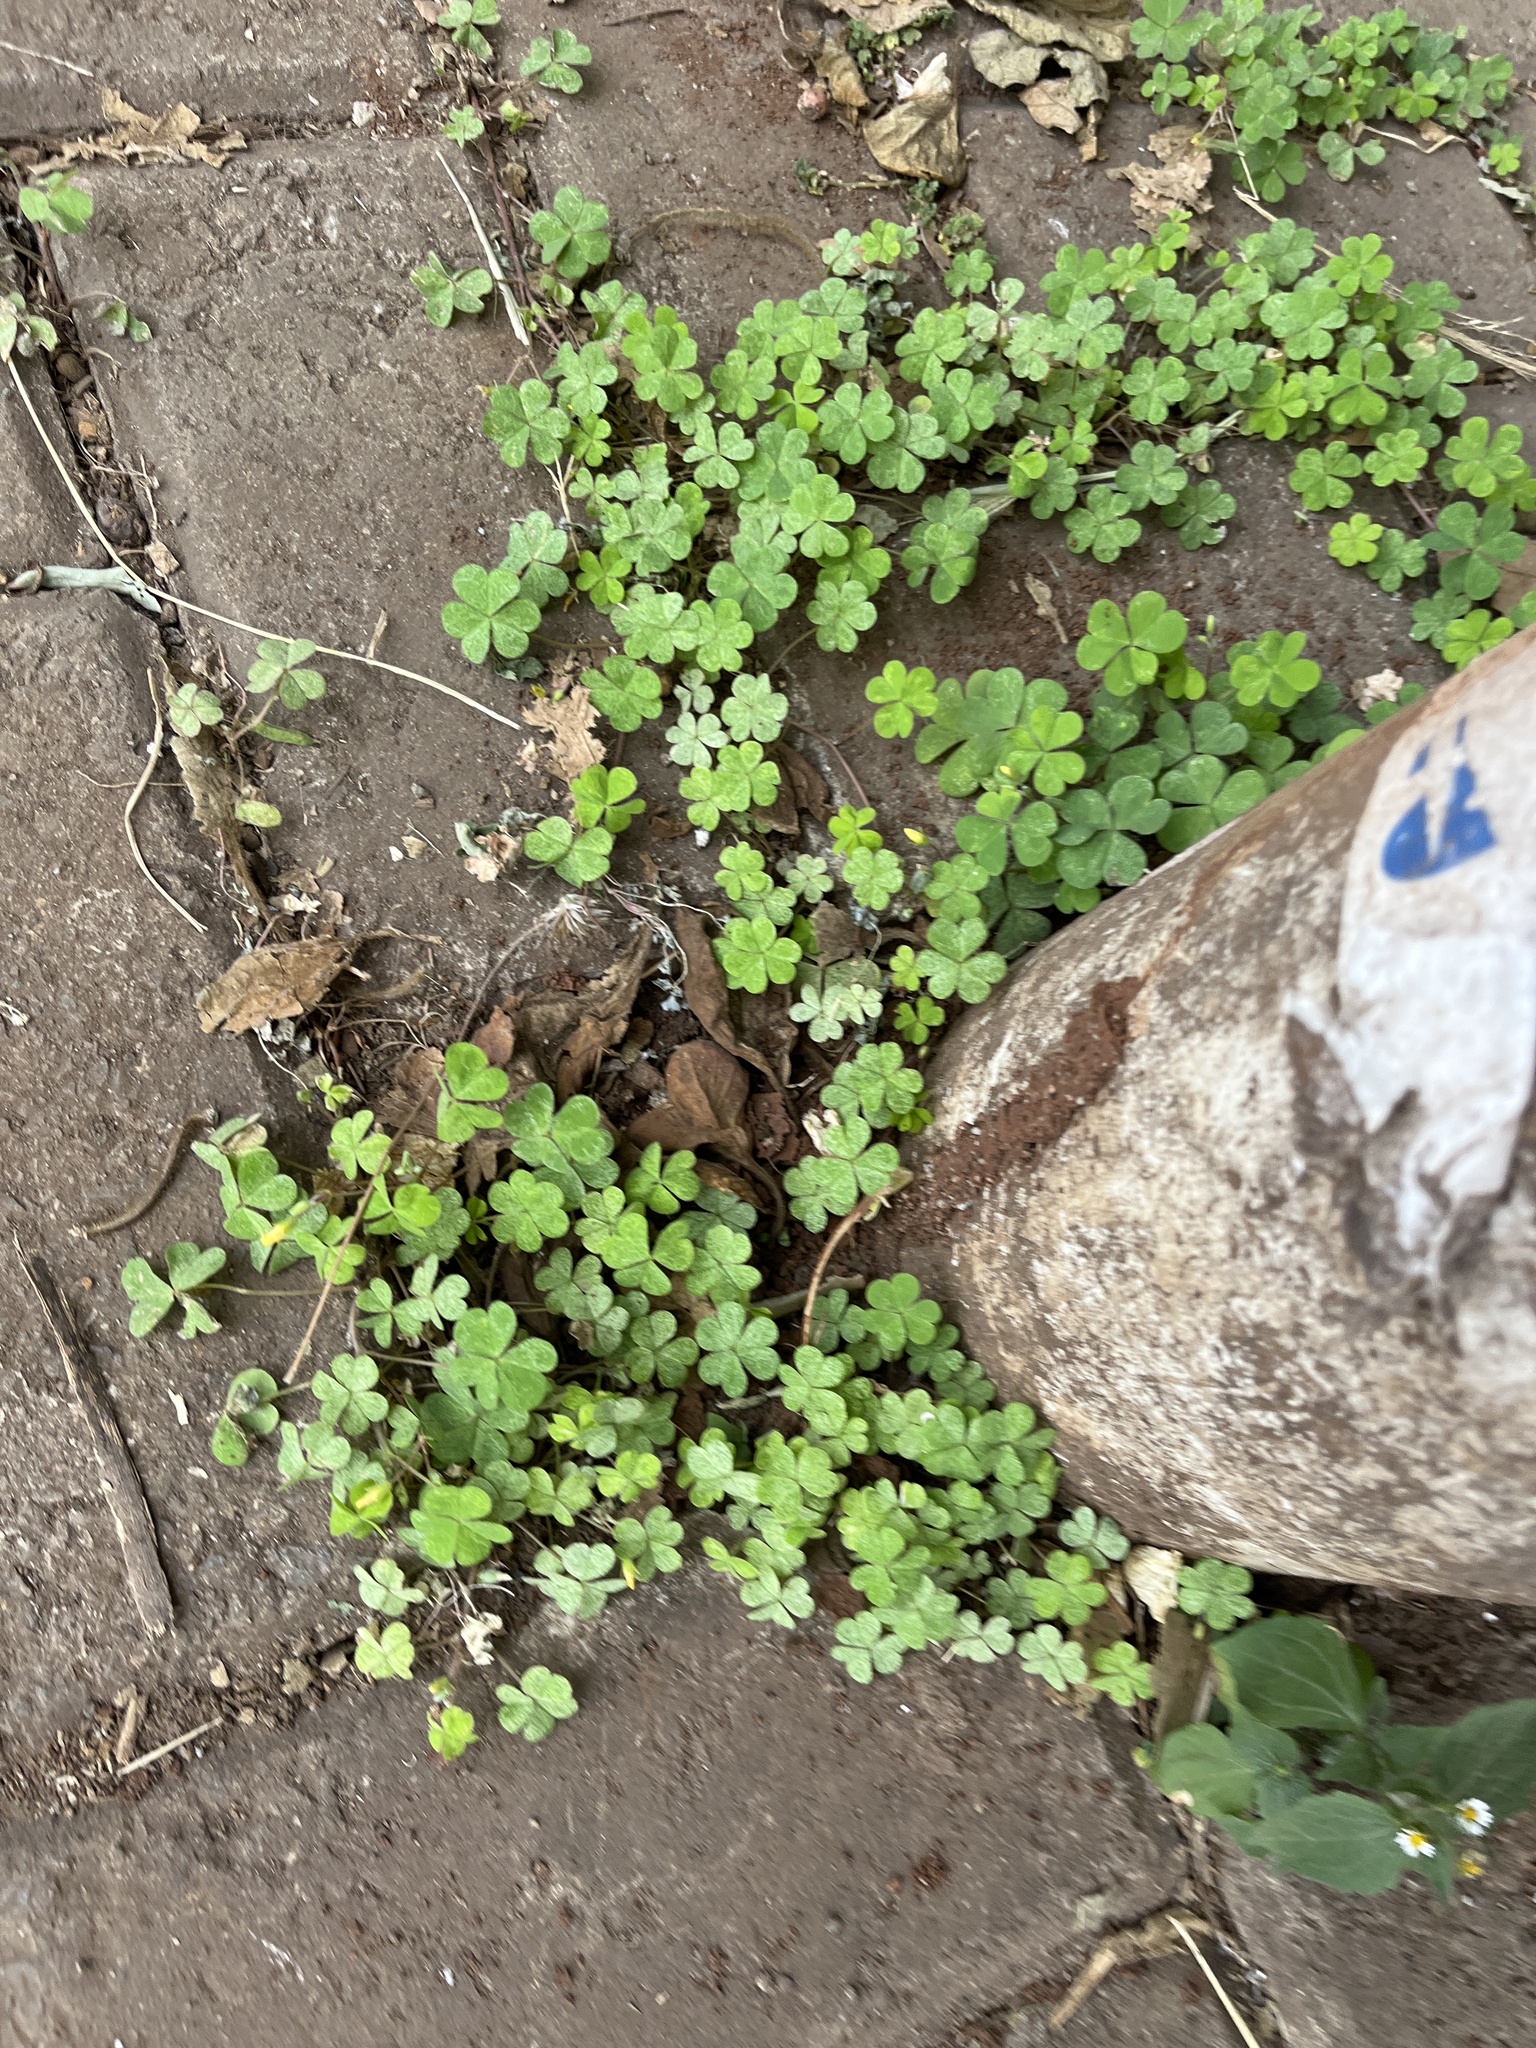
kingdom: Plantae
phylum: Tracheophyta
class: Magnoliopsida
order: Oxalidales
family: Oxalidaceae
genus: Oxalis
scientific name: Oxalis corniculata
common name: Procumbent yellow-sorrel
